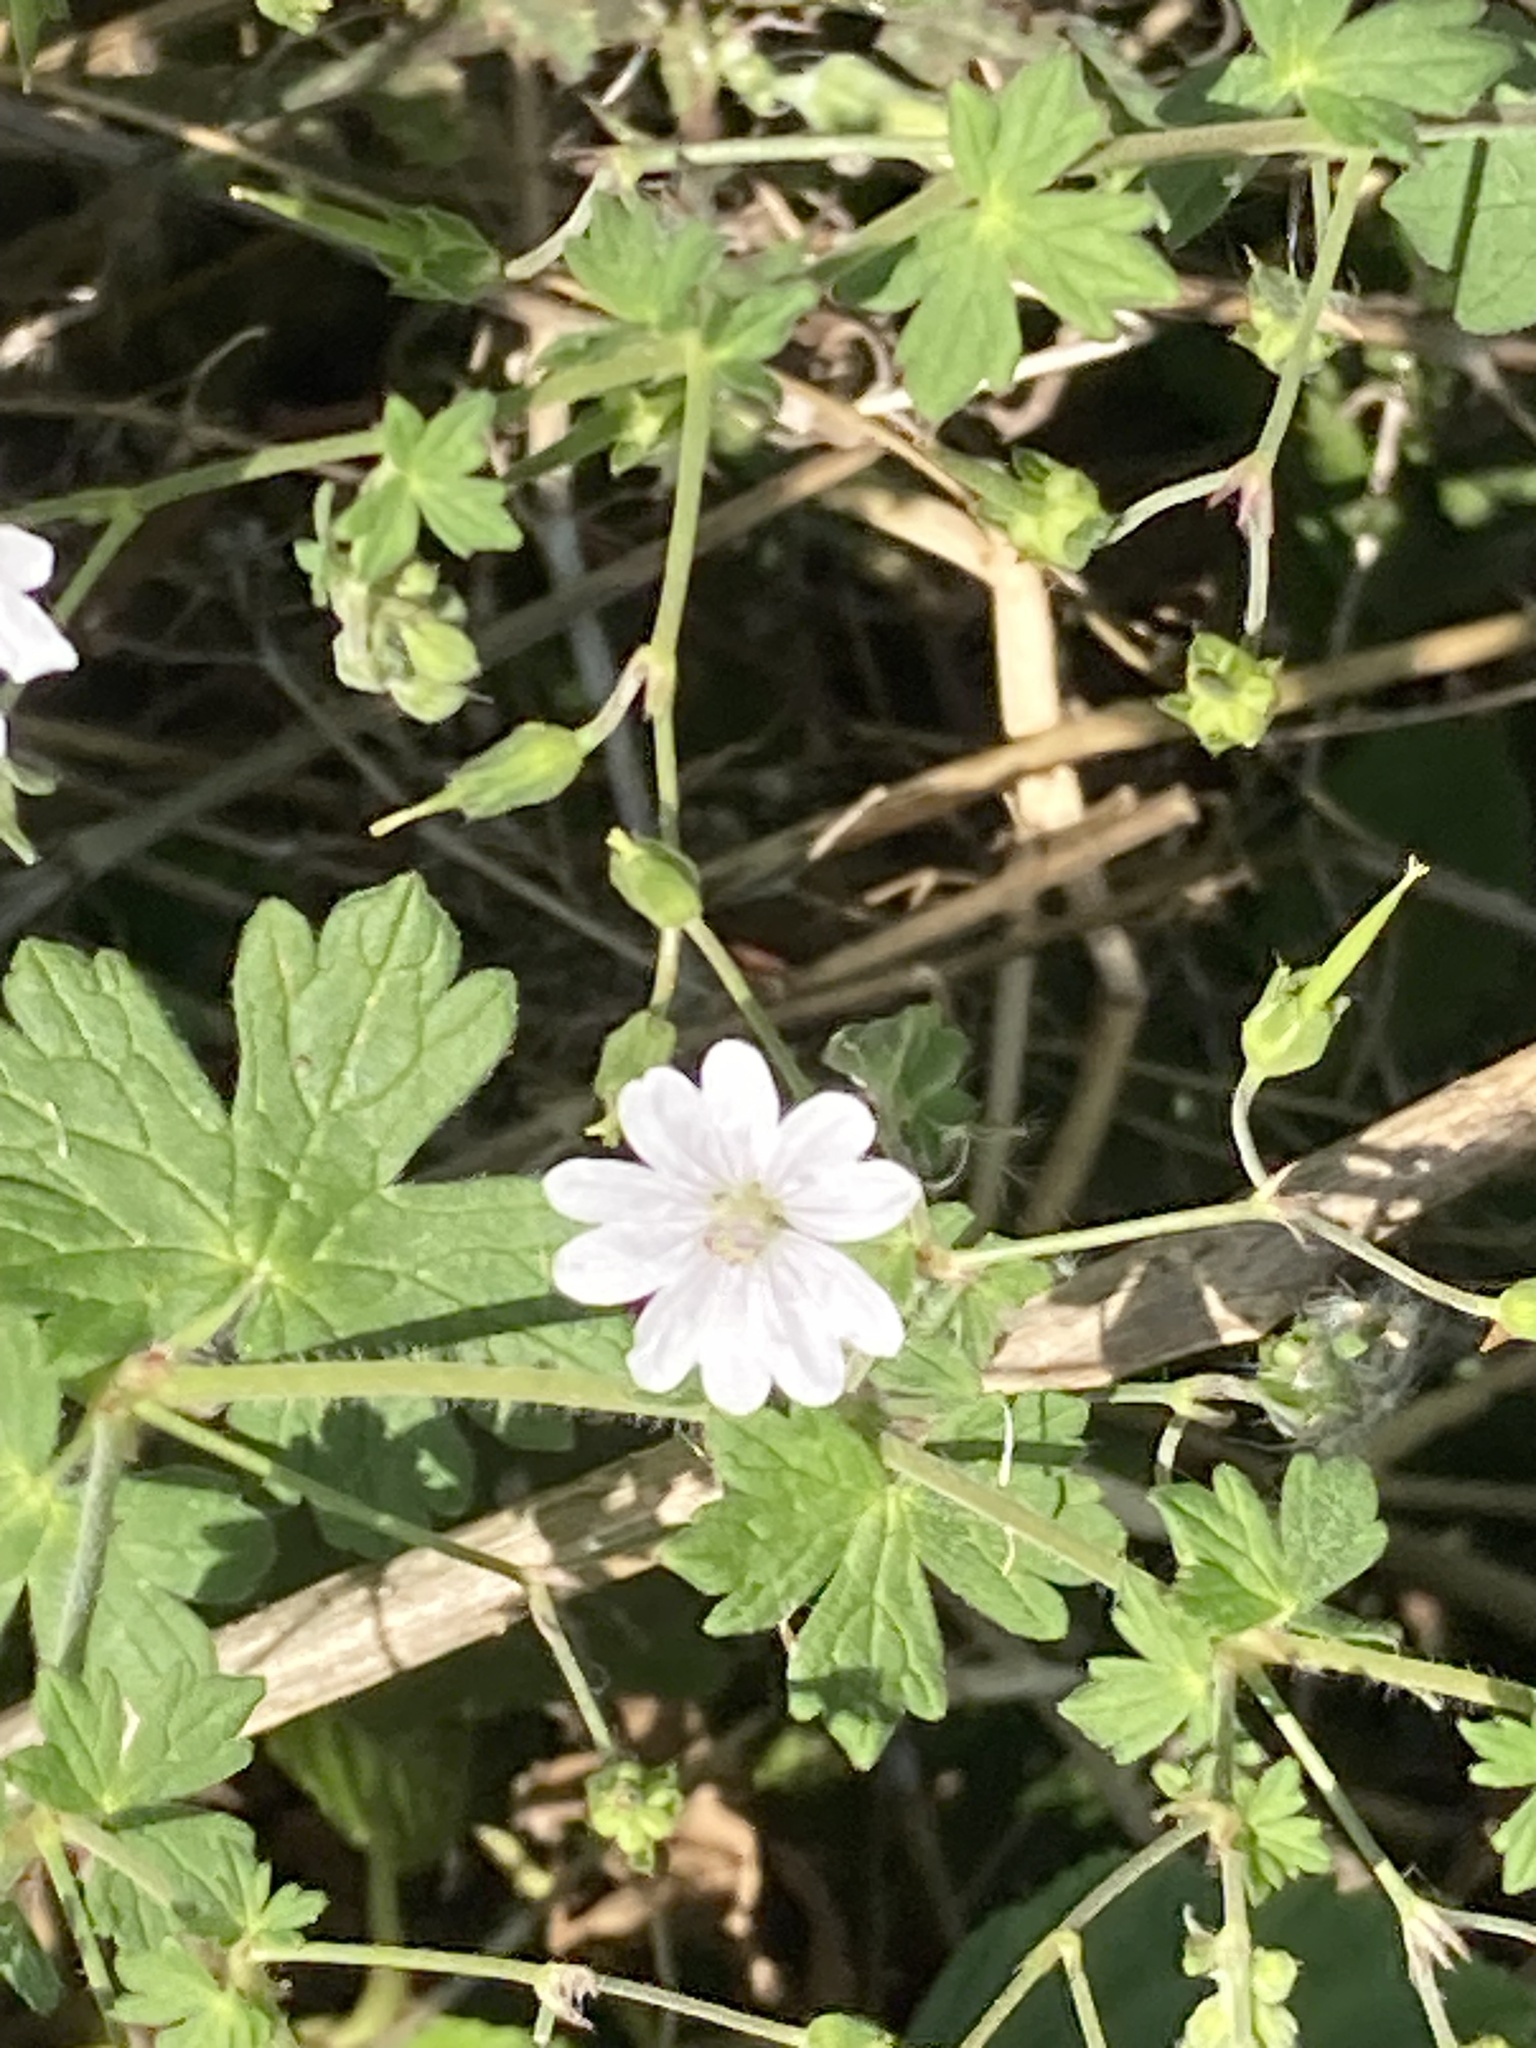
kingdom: Plantae
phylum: Tracheophyta
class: Magnoliopsida
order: Geraniales
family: Geraniaceae
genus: Geranium
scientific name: Geranium pyrenaicum
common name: Hedgerow crane's-bill
